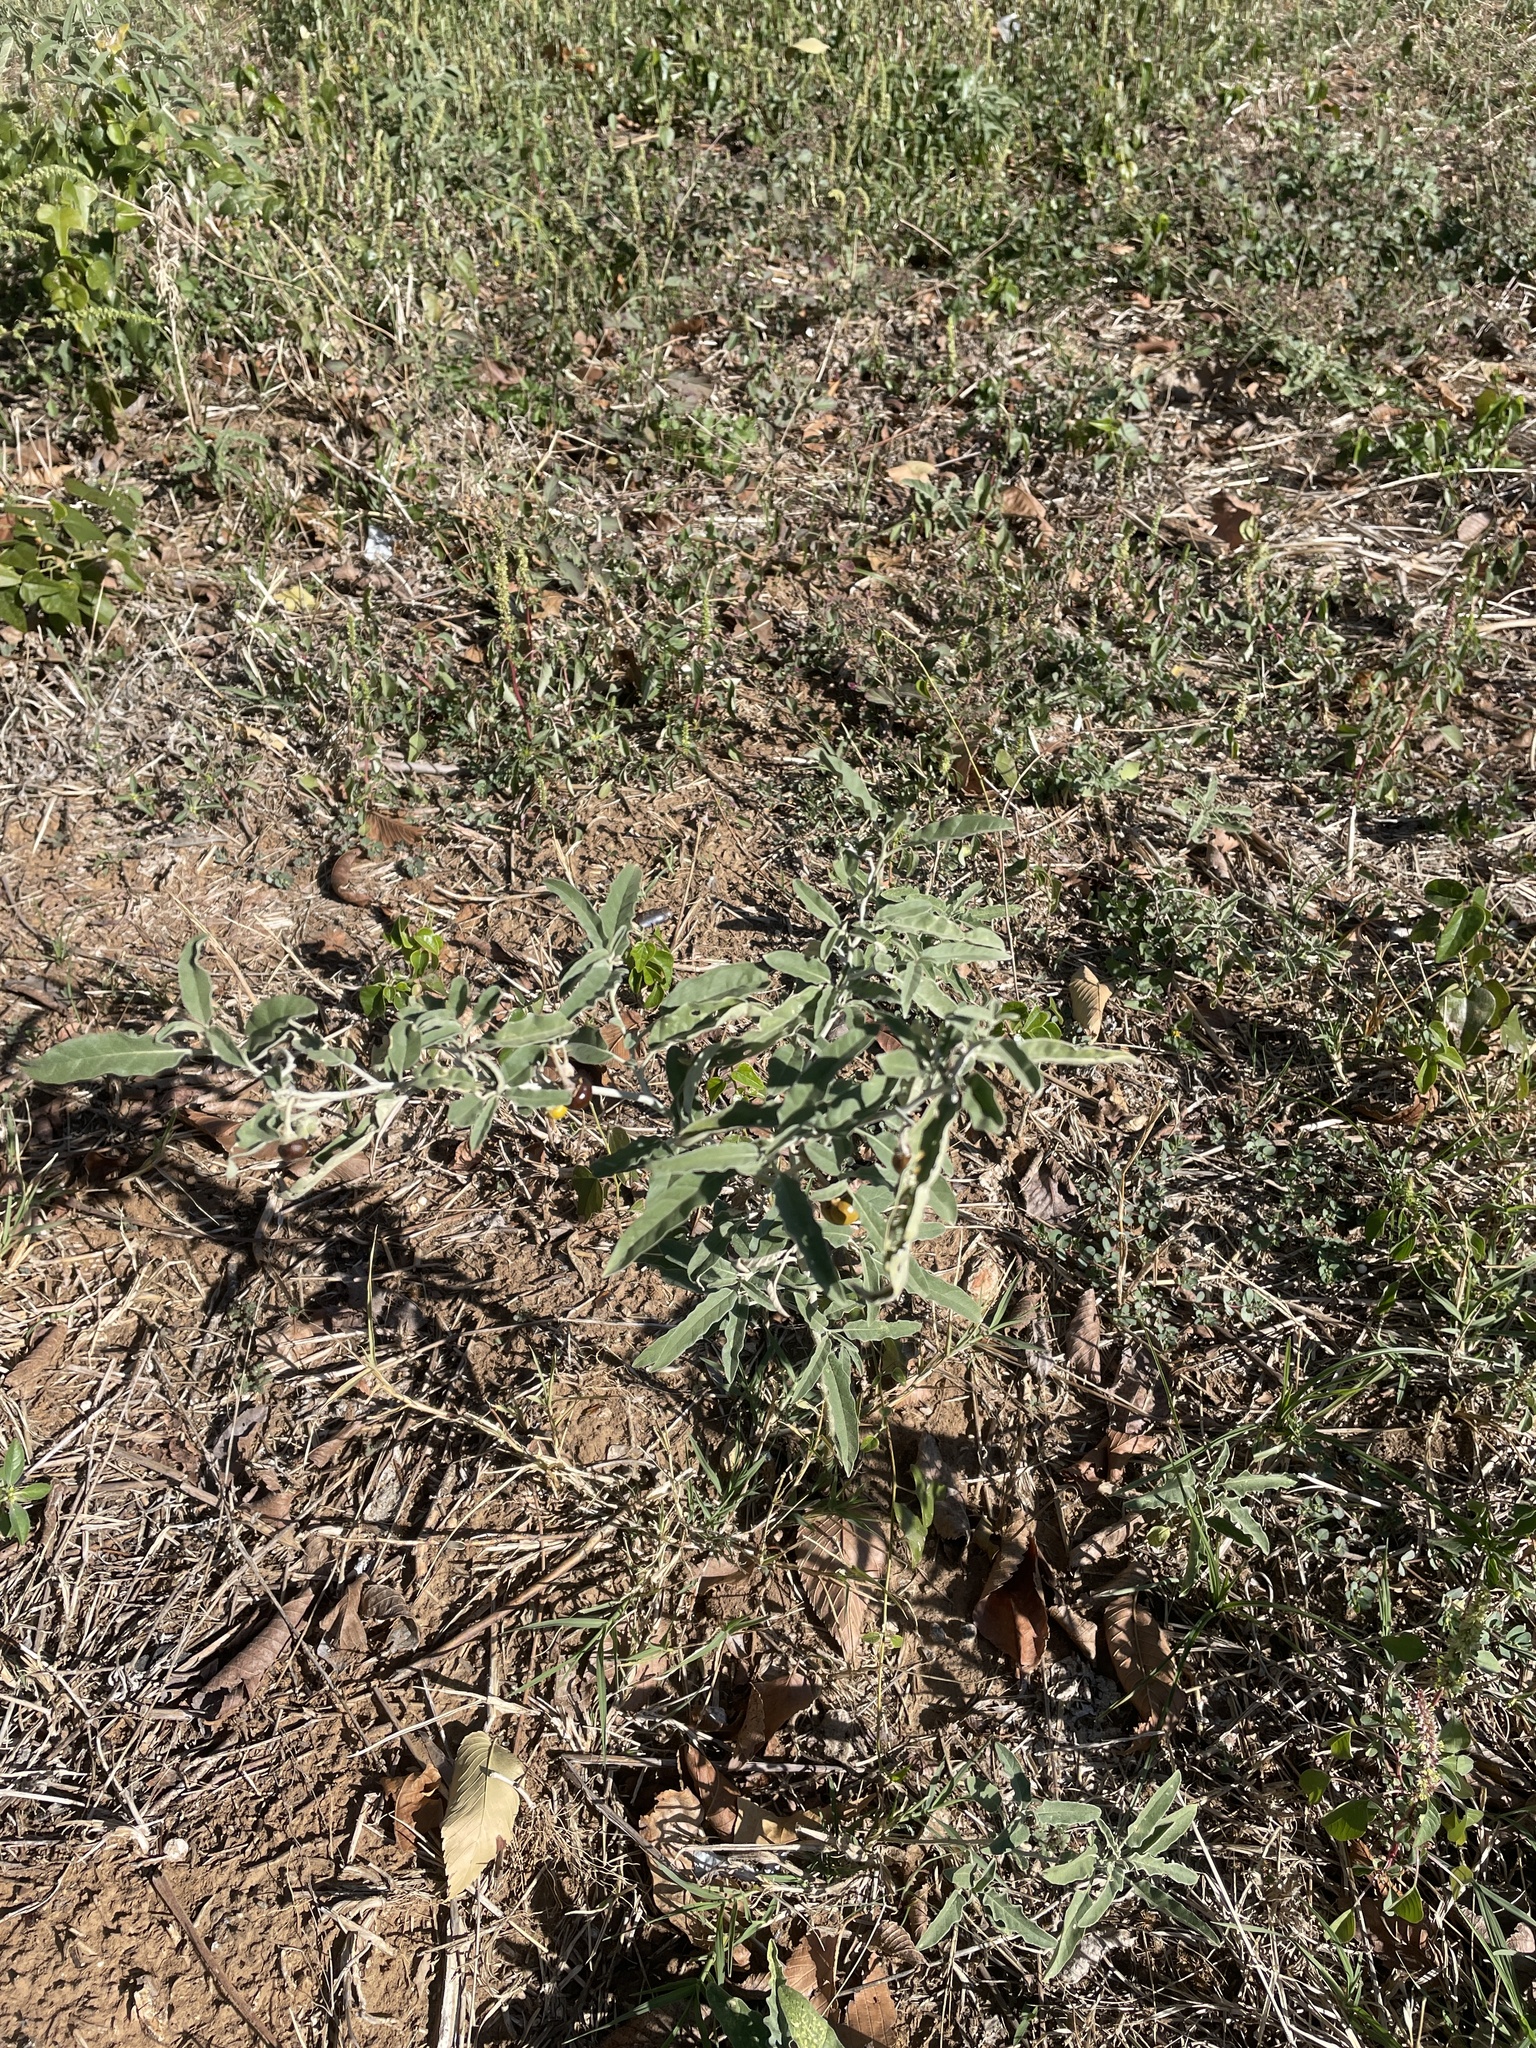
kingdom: Plantae
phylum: Tracheophyta
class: Magnoliopsida
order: Solanales
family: Solanaceae
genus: Solanum
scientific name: Solanum elaeagnifolium
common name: Silverleaf nightshade
